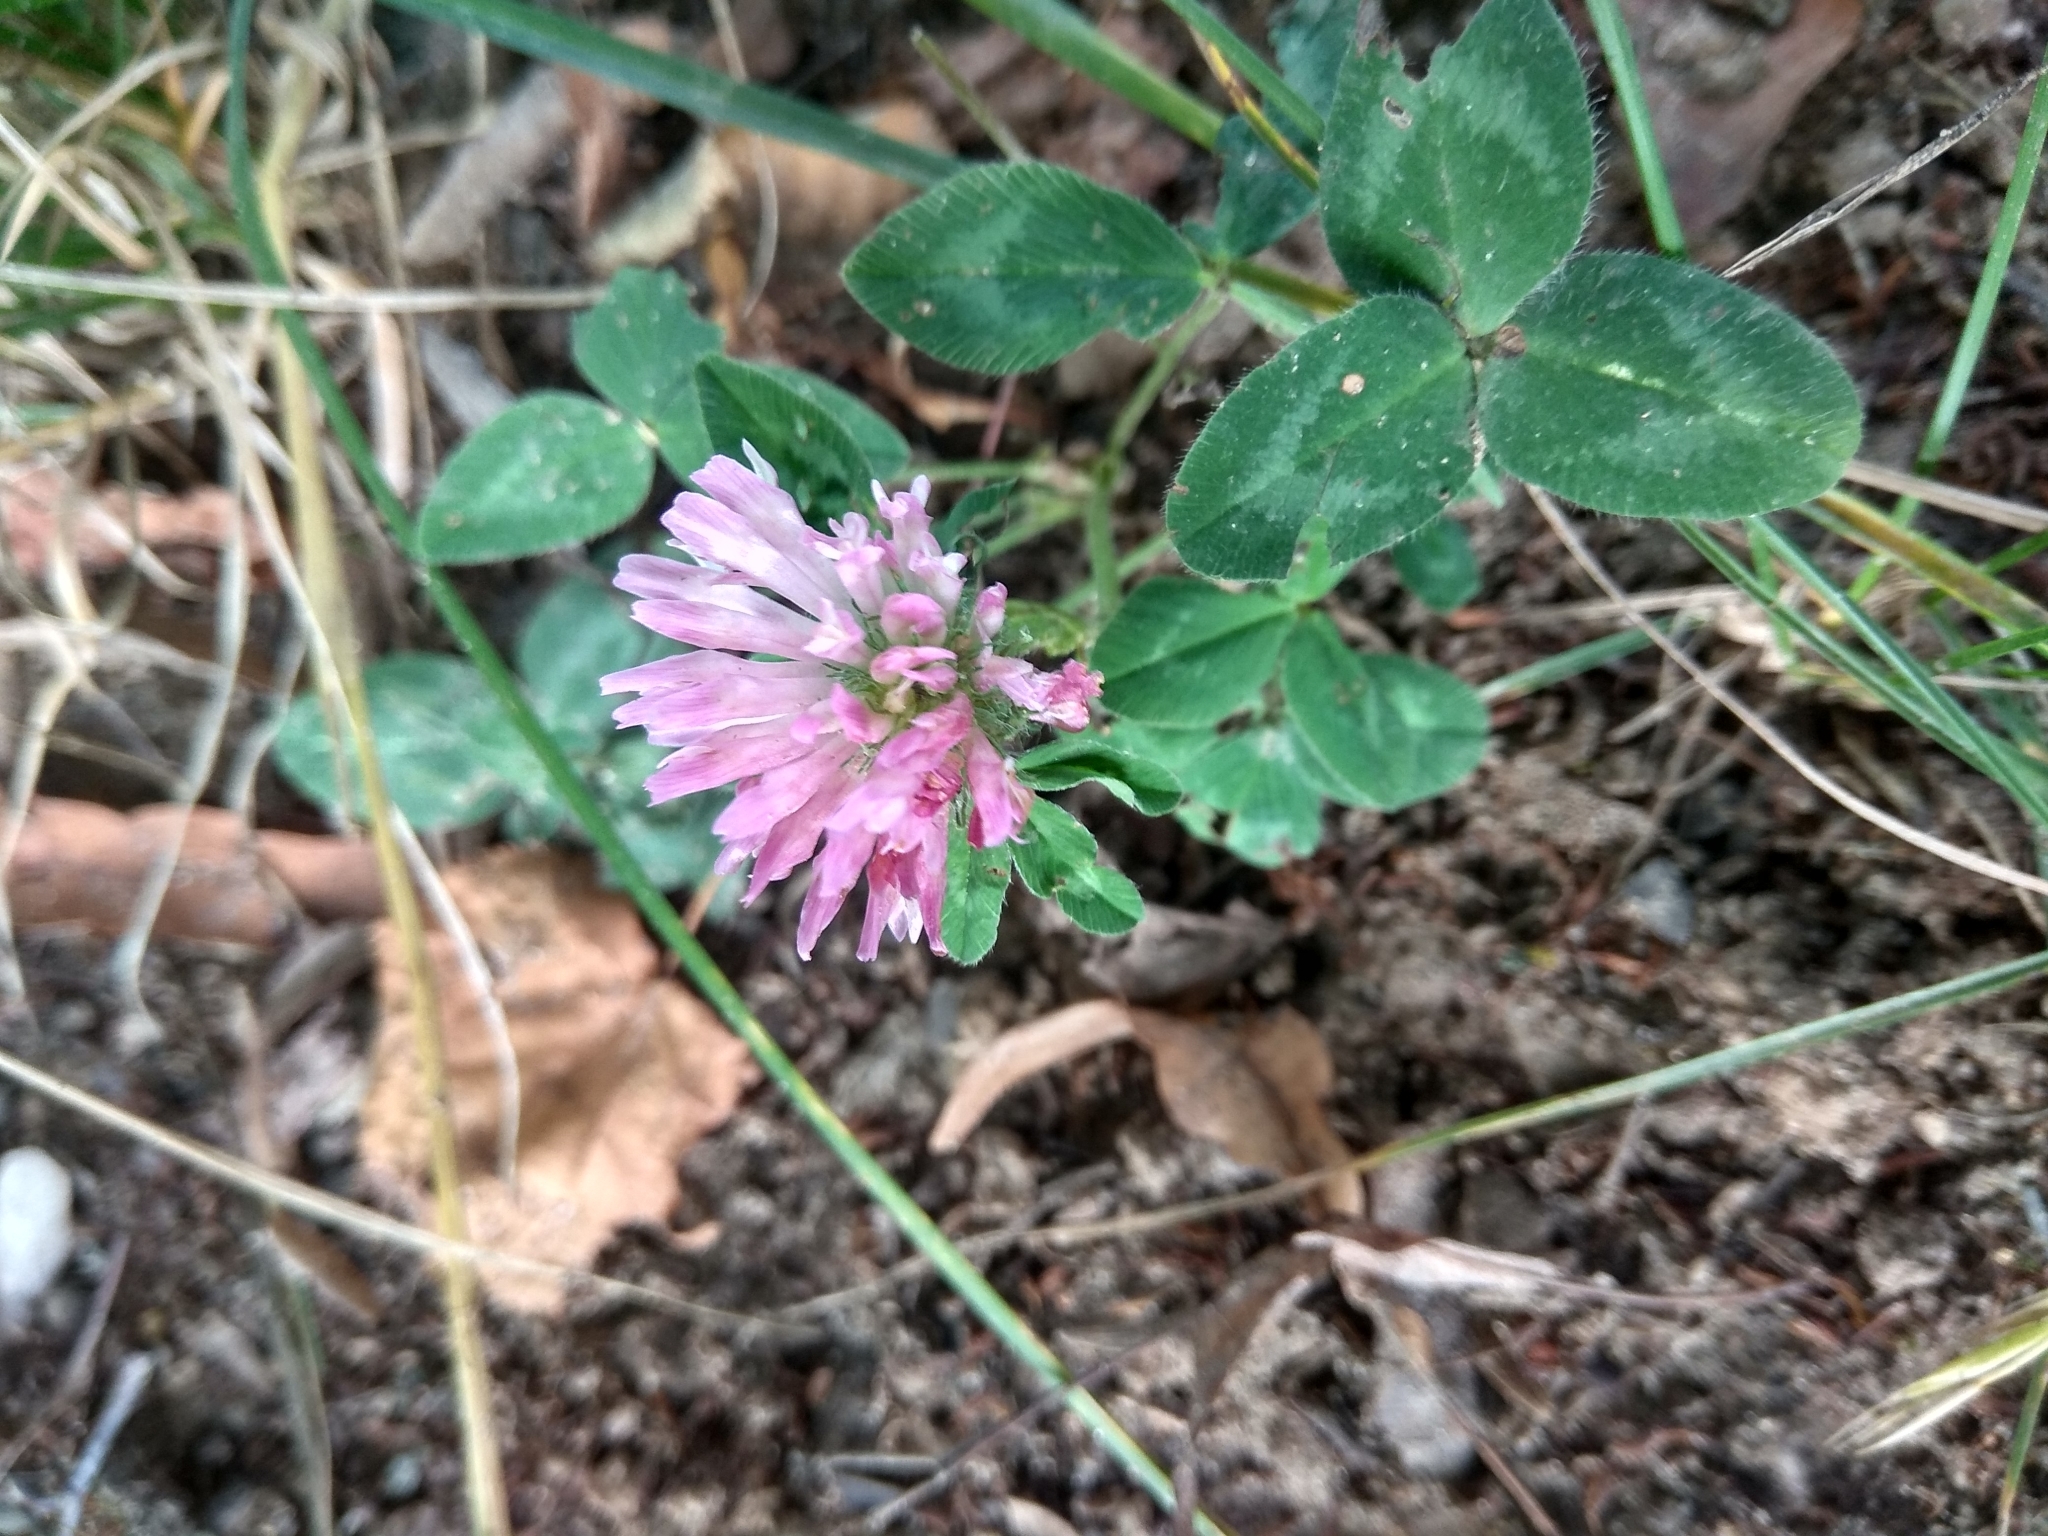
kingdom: Plantae
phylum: Tracheophyta
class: Magnoliopsida
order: Fabales
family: Fabaceae
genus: Trifolium
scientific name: Trifolium pratense
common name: Red clover
